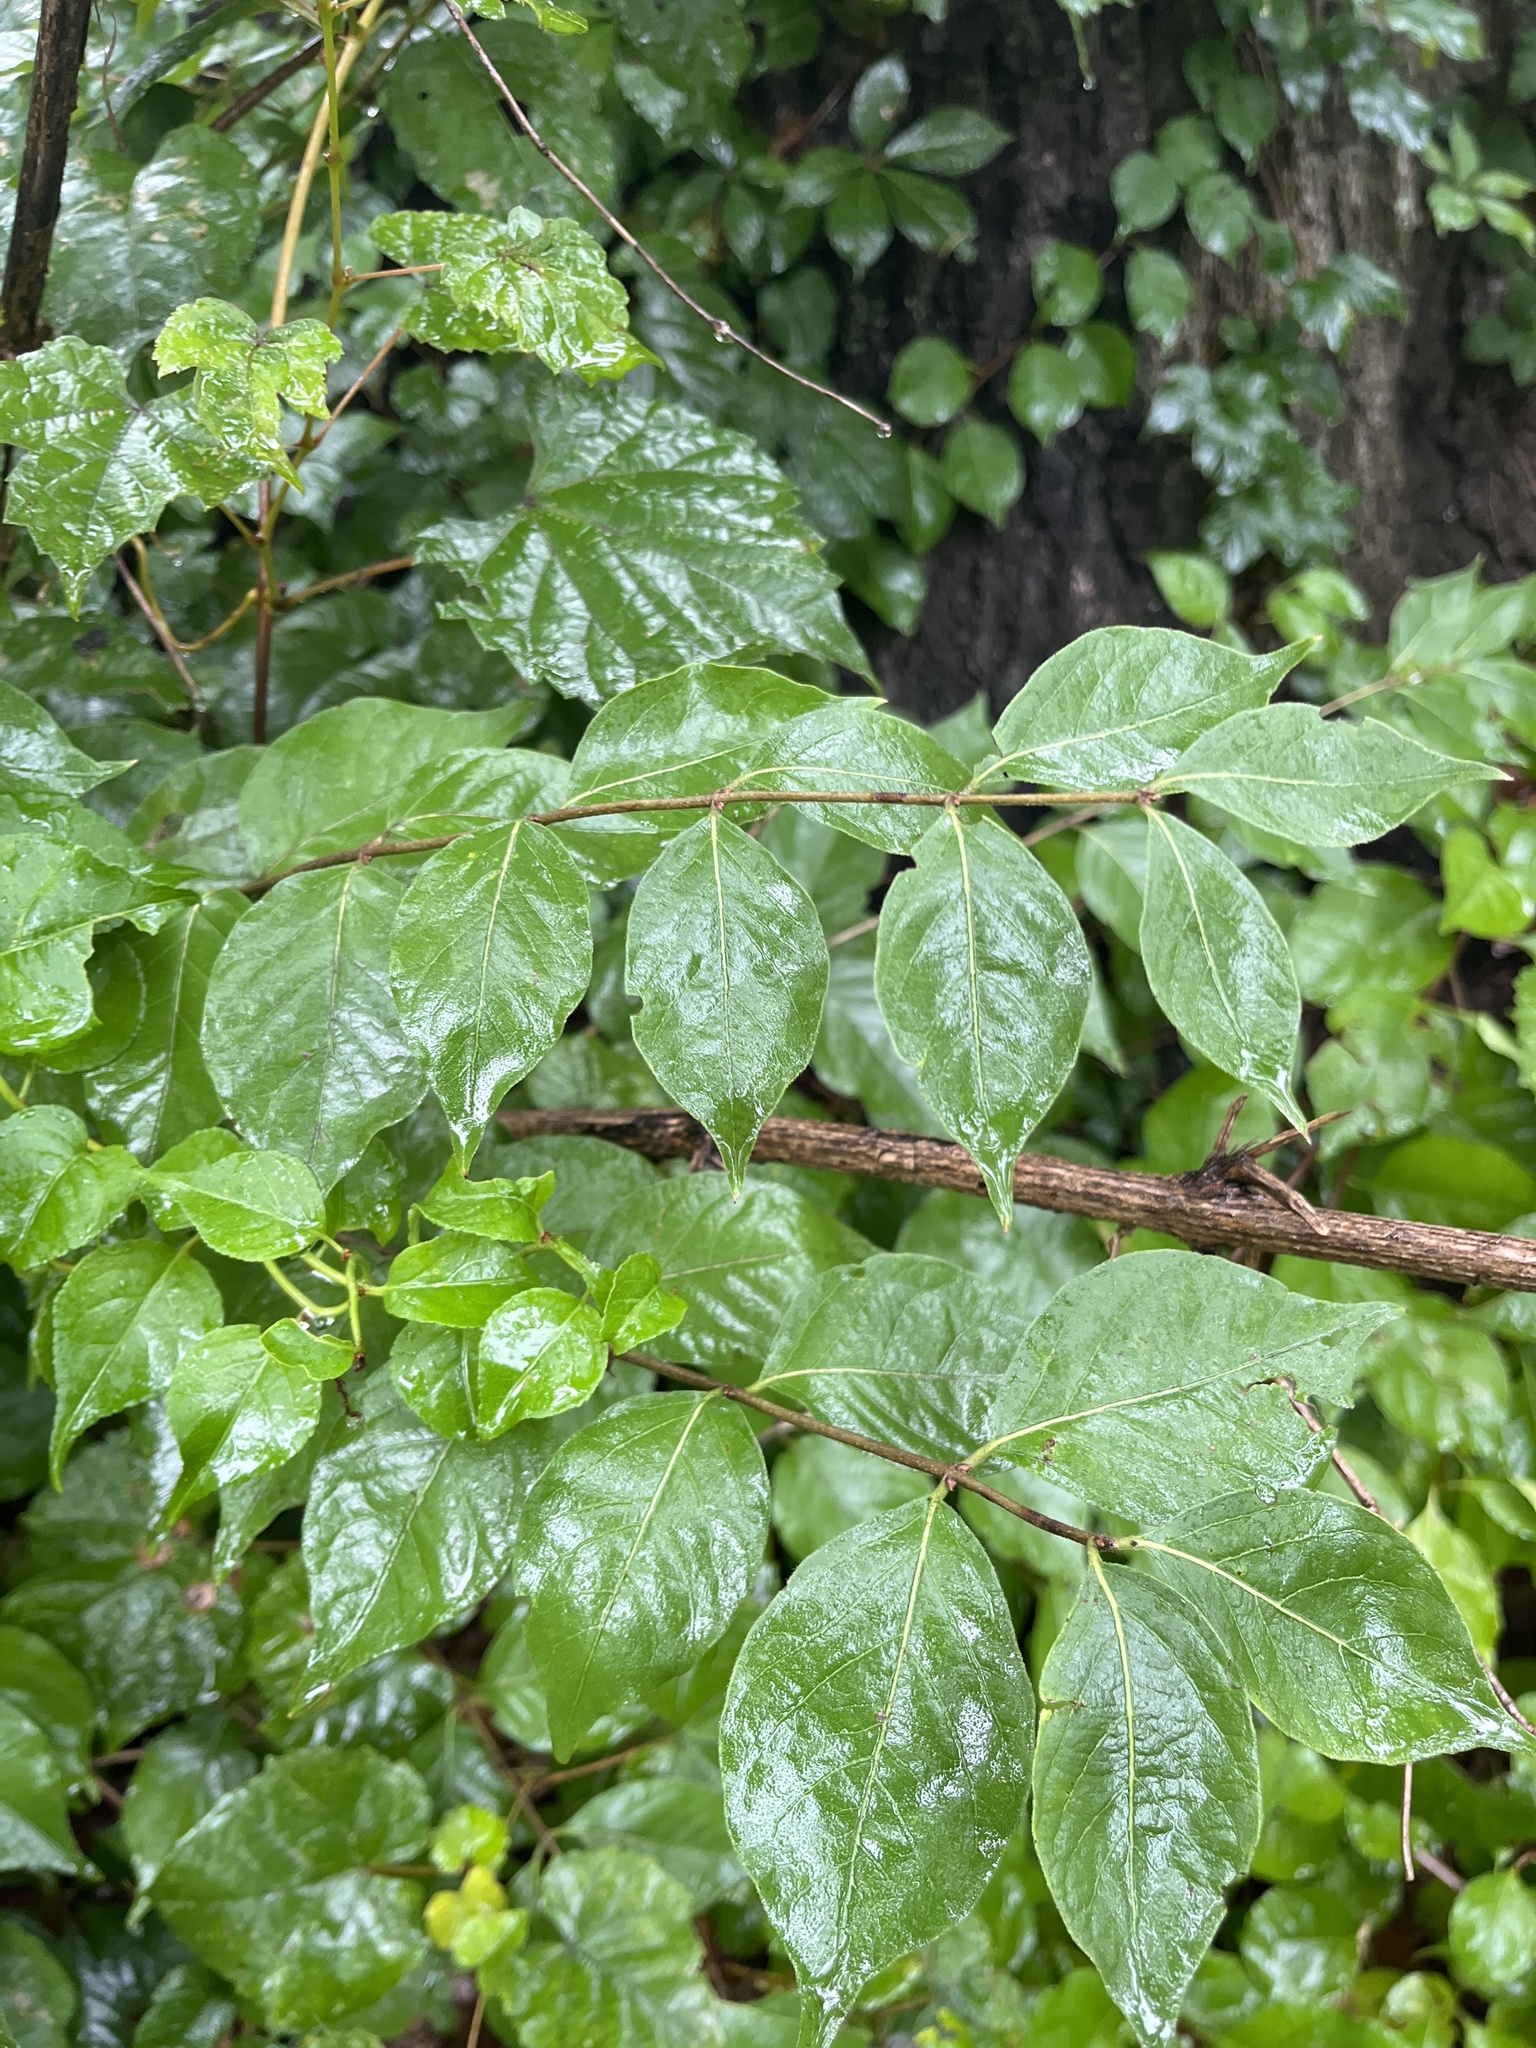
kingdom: Plantae
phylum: Tracheophyta
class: Magnoliopsida
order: Dipsacales
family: Caprifoliaceae
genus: Lonicera
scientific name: Lonicera maackii
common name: Amur honeysuckle
